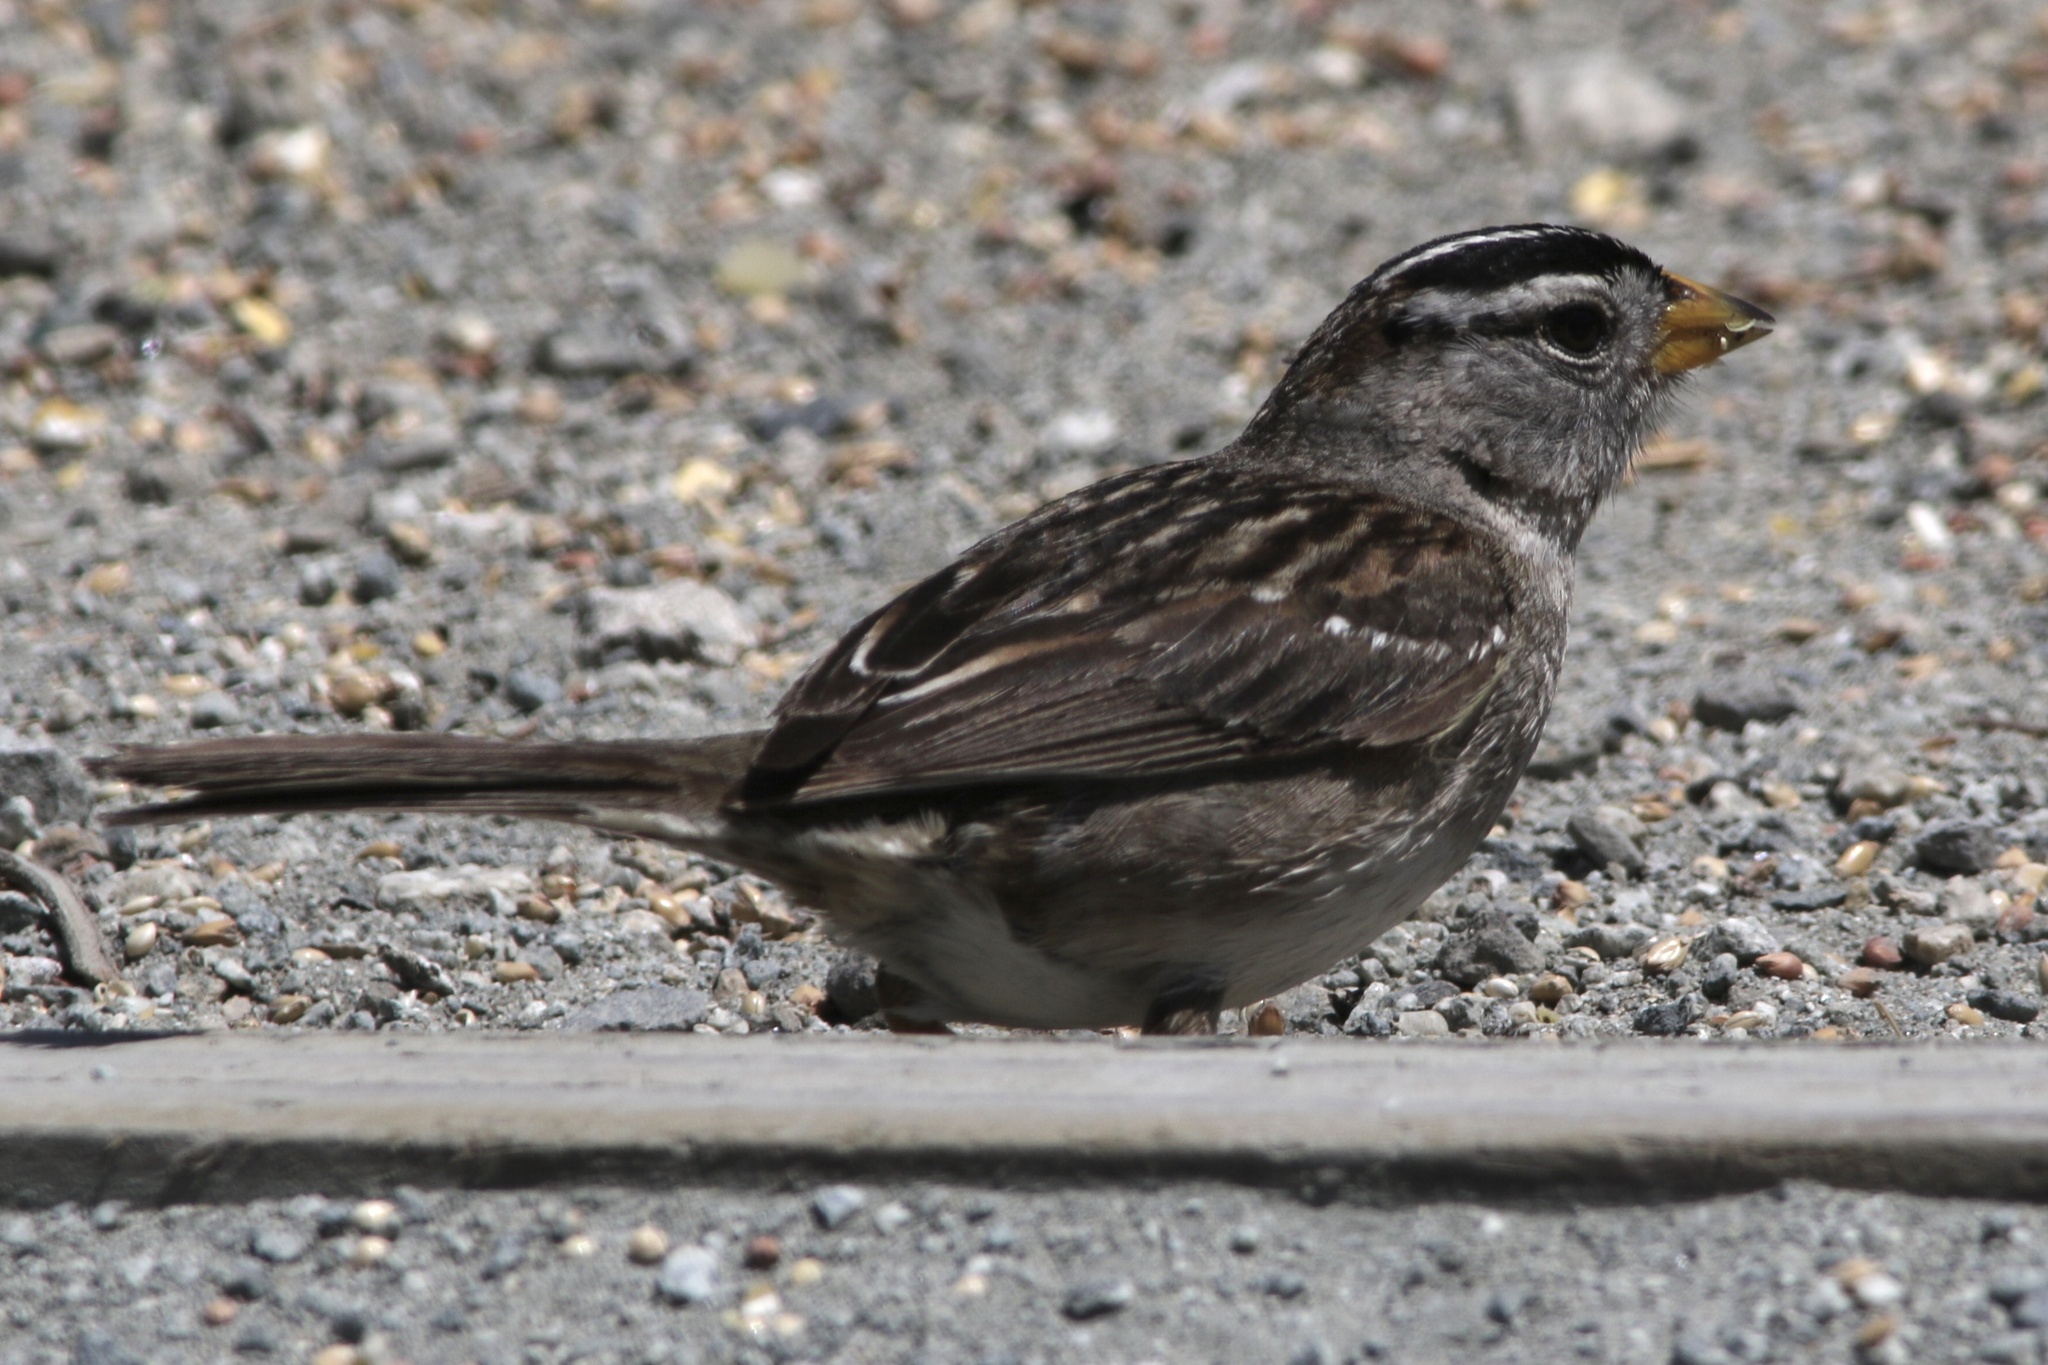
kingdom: Animalia
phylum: Chordata
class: Aves
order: Passeriformes
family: Passerellidae
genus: Zonotrichia
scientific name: Zonotrichia leucophrys
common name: White-crowned sparrow
